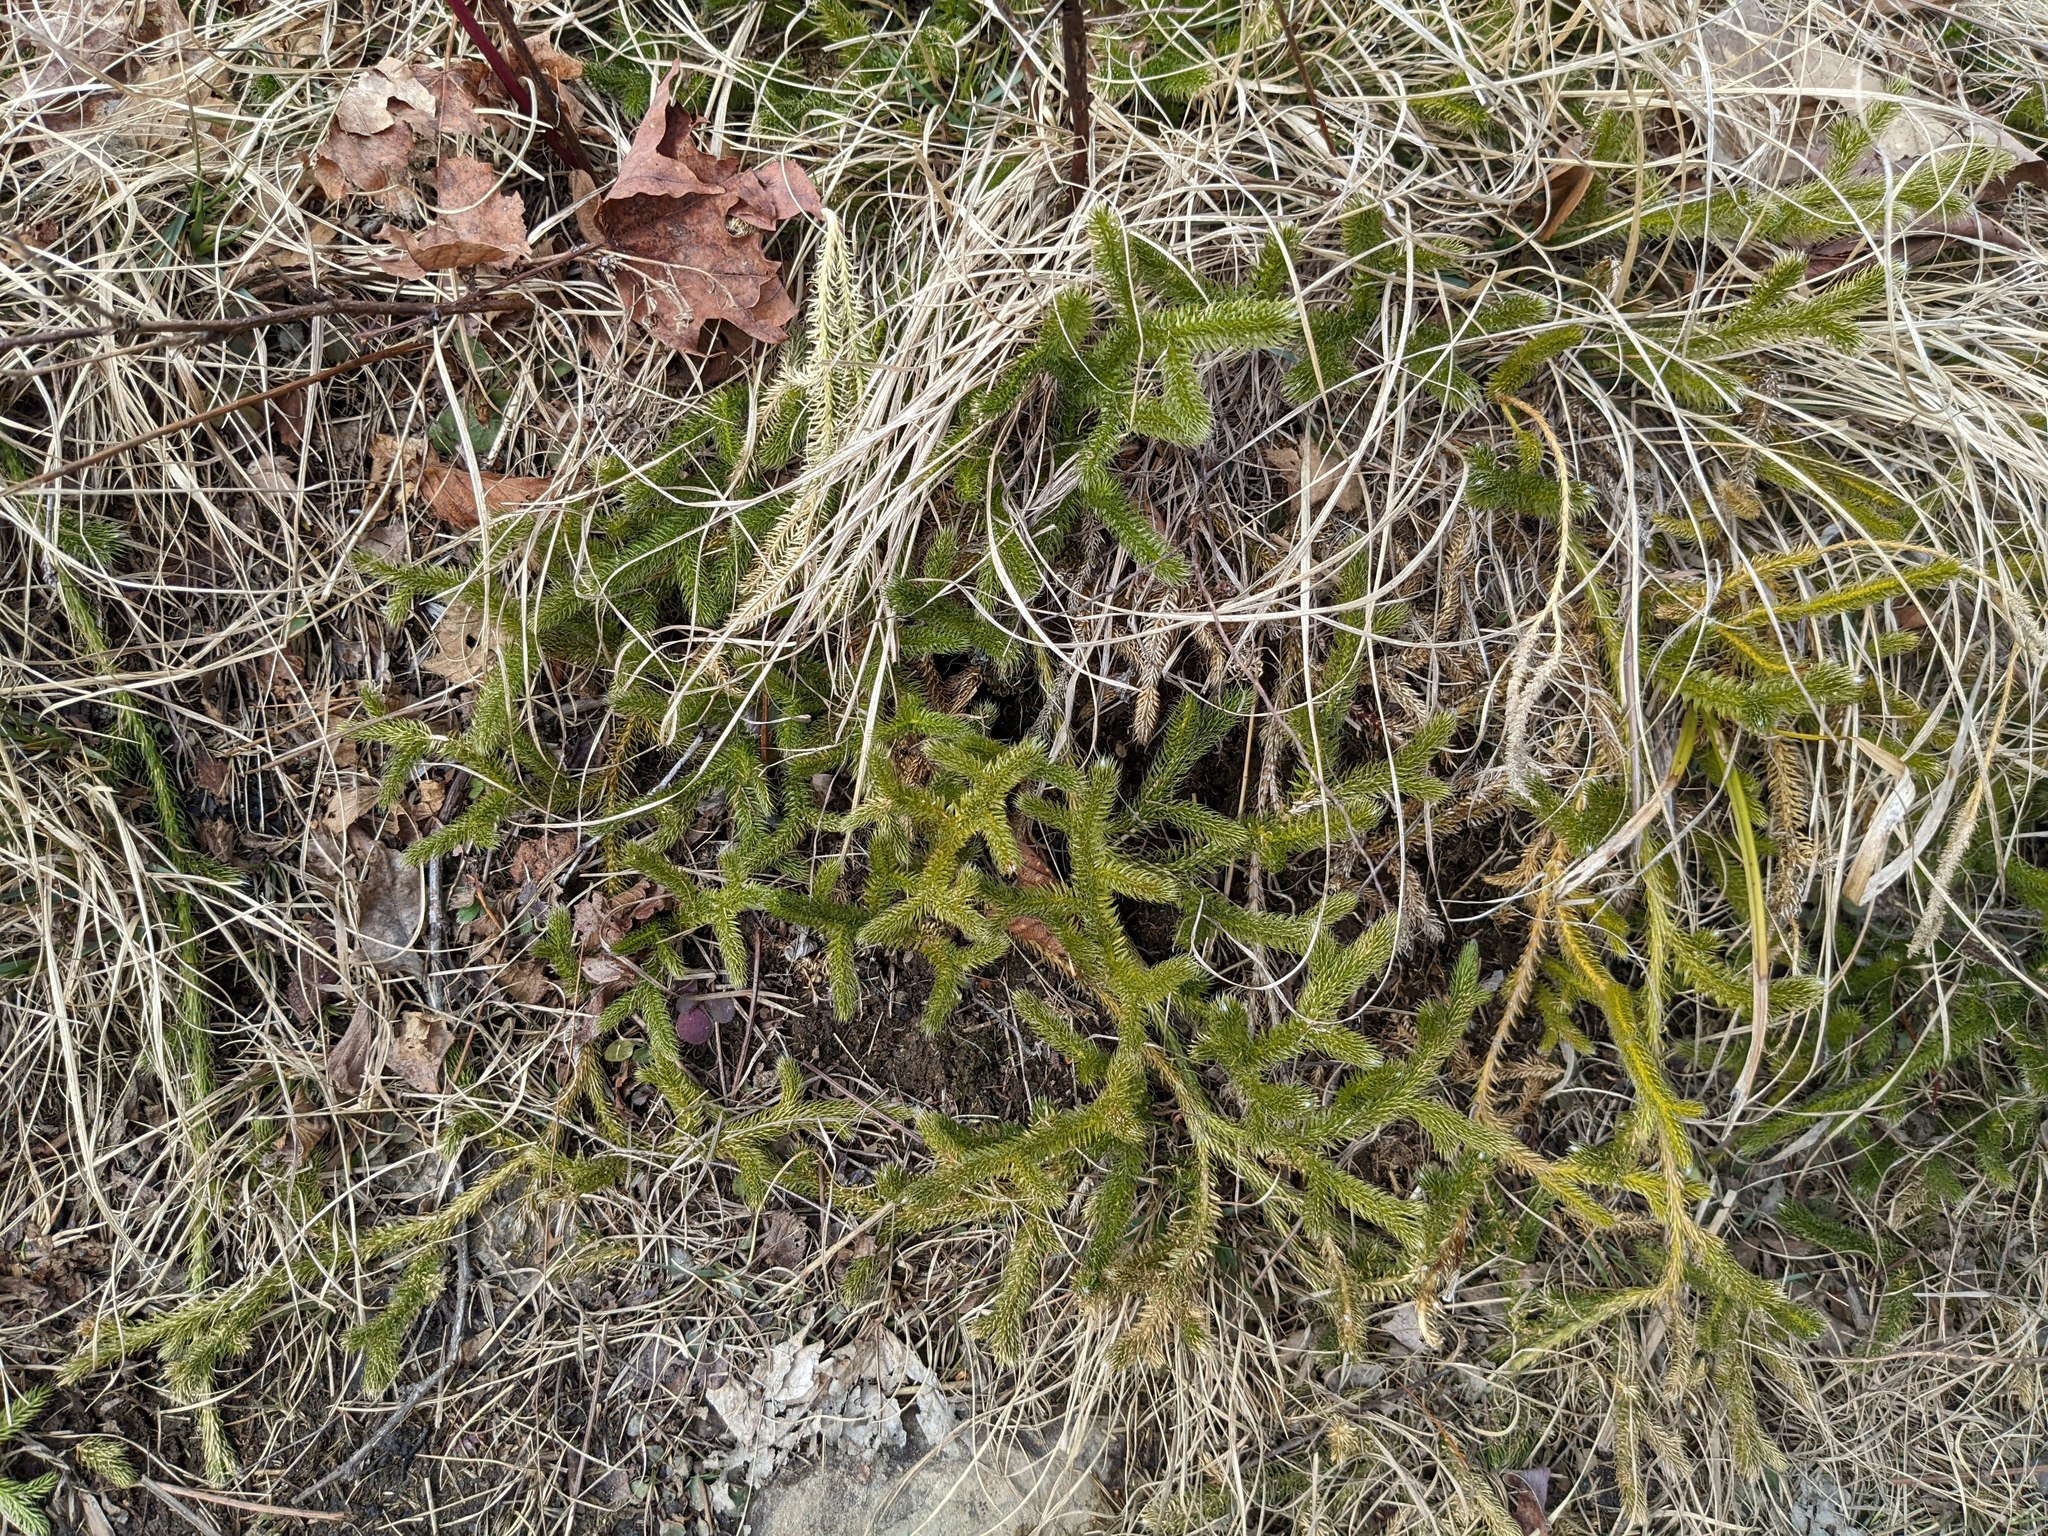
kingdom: Plantae
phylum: Tracheophyta
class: Lycopodiopsida
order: Lycopodiales
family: Lycopodiaceae
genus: Lycopodium
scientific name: Lycopodium clavatum
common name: Stag's-horn clubmoss
